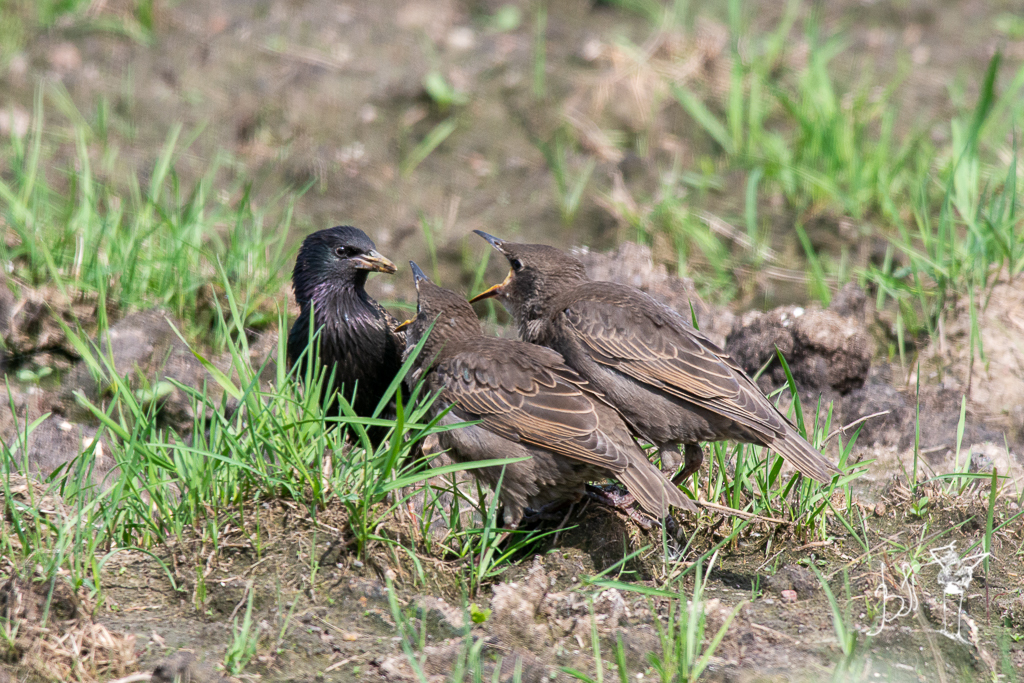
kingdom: Animalia
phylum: Chordata
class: Aves
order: Passeriformes
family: Sturnidae
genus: Sturnus
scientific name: Sturnus vulgaris
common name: Common starling
